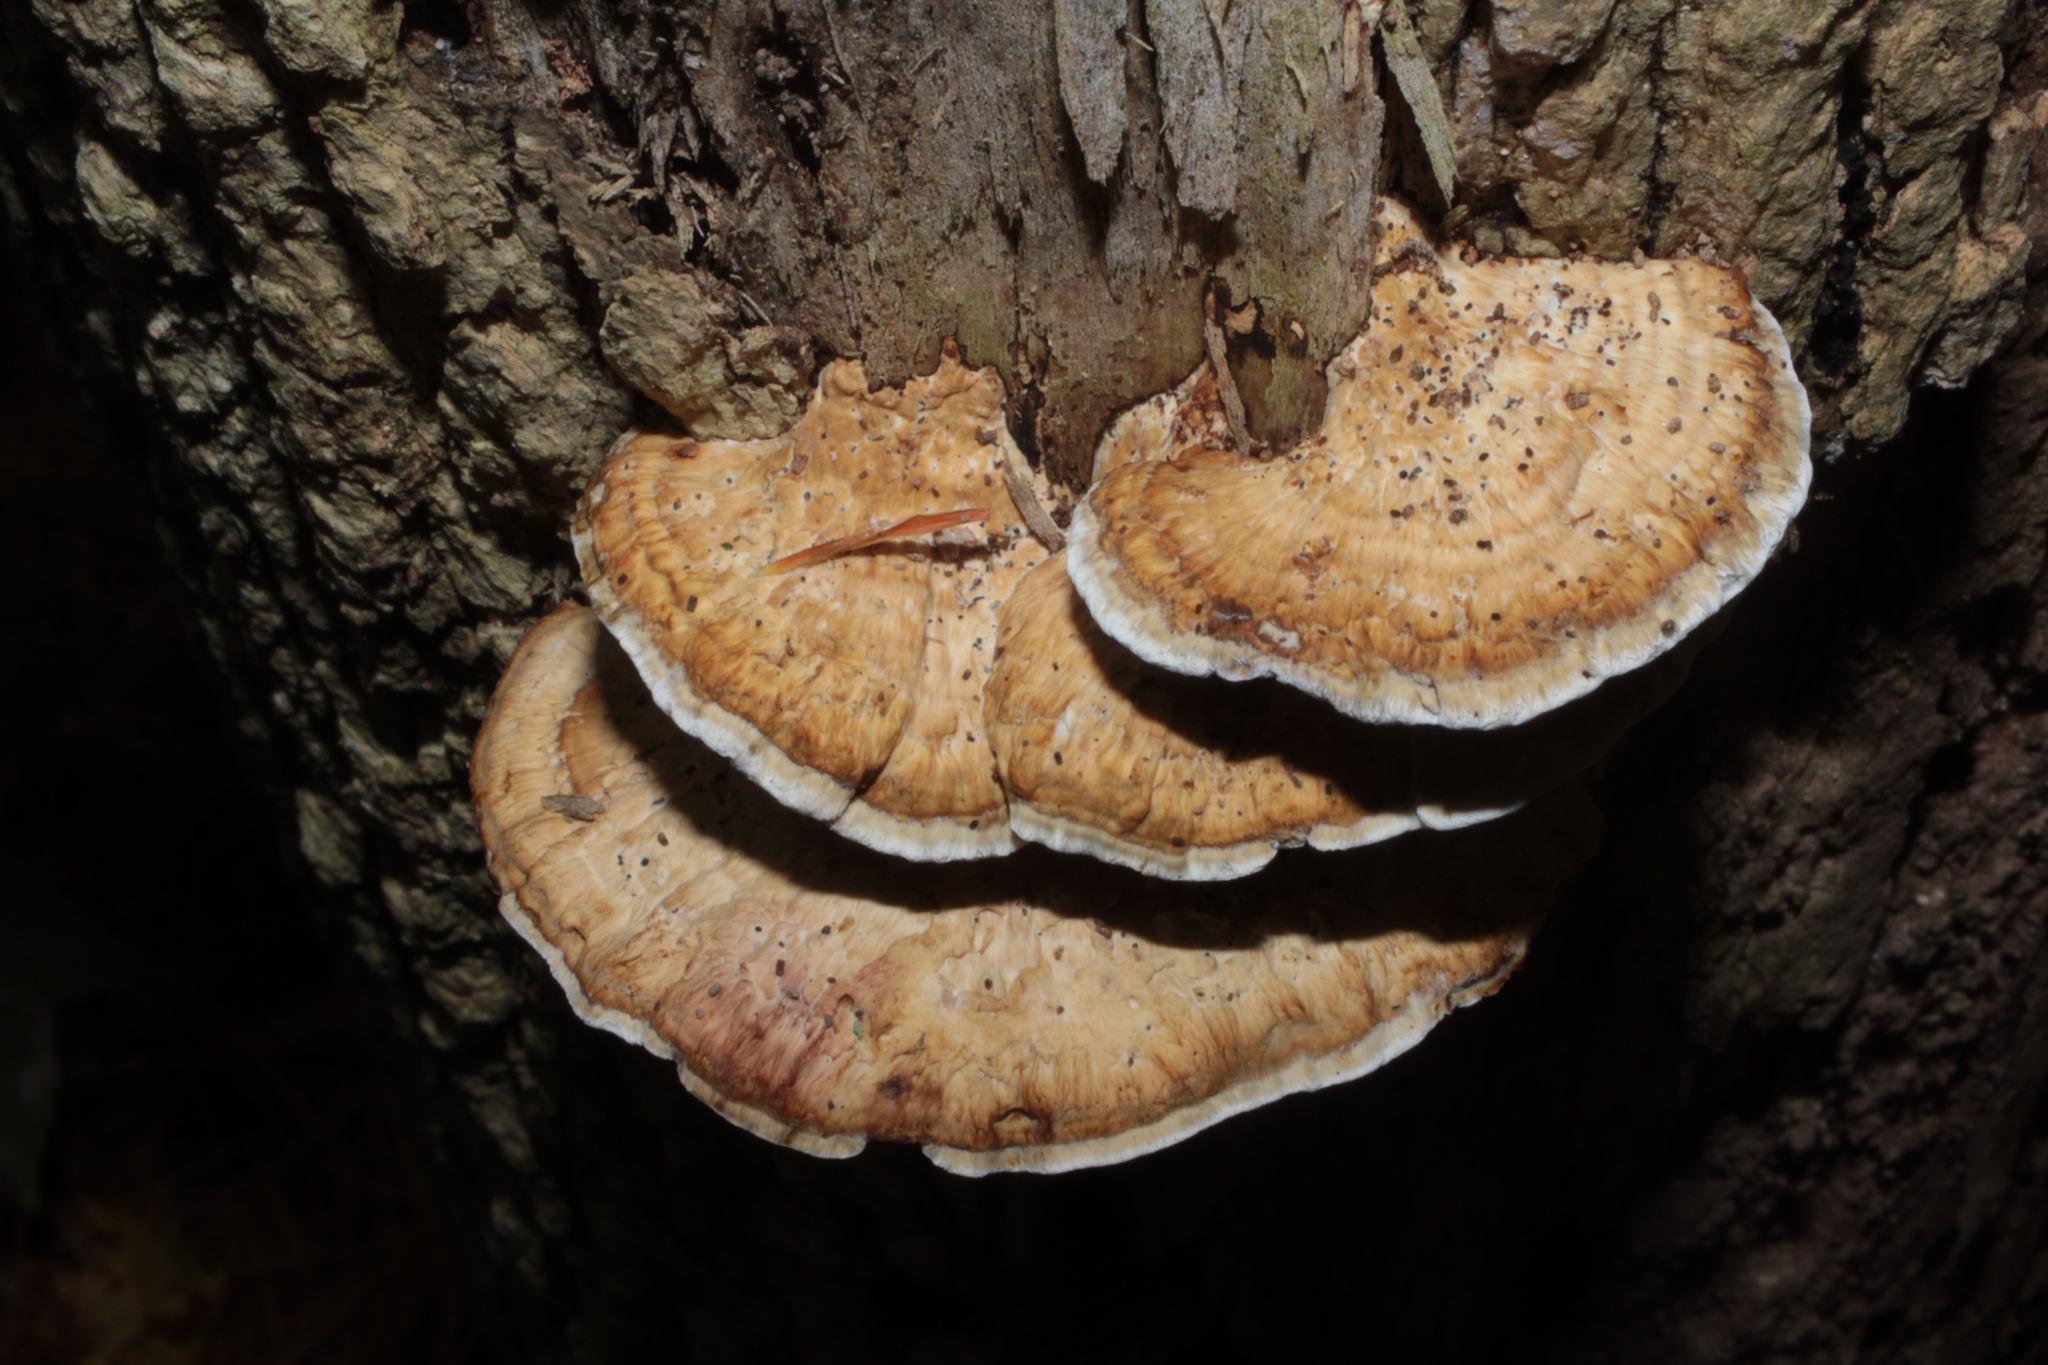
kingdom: Fungi
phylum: Basidiomycota
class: Agaricomycetes
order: Polyporales
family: Polyporaceae
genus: Daedaleopsis
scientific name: Daedaleopsis confragosa
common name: Blushing bracket
